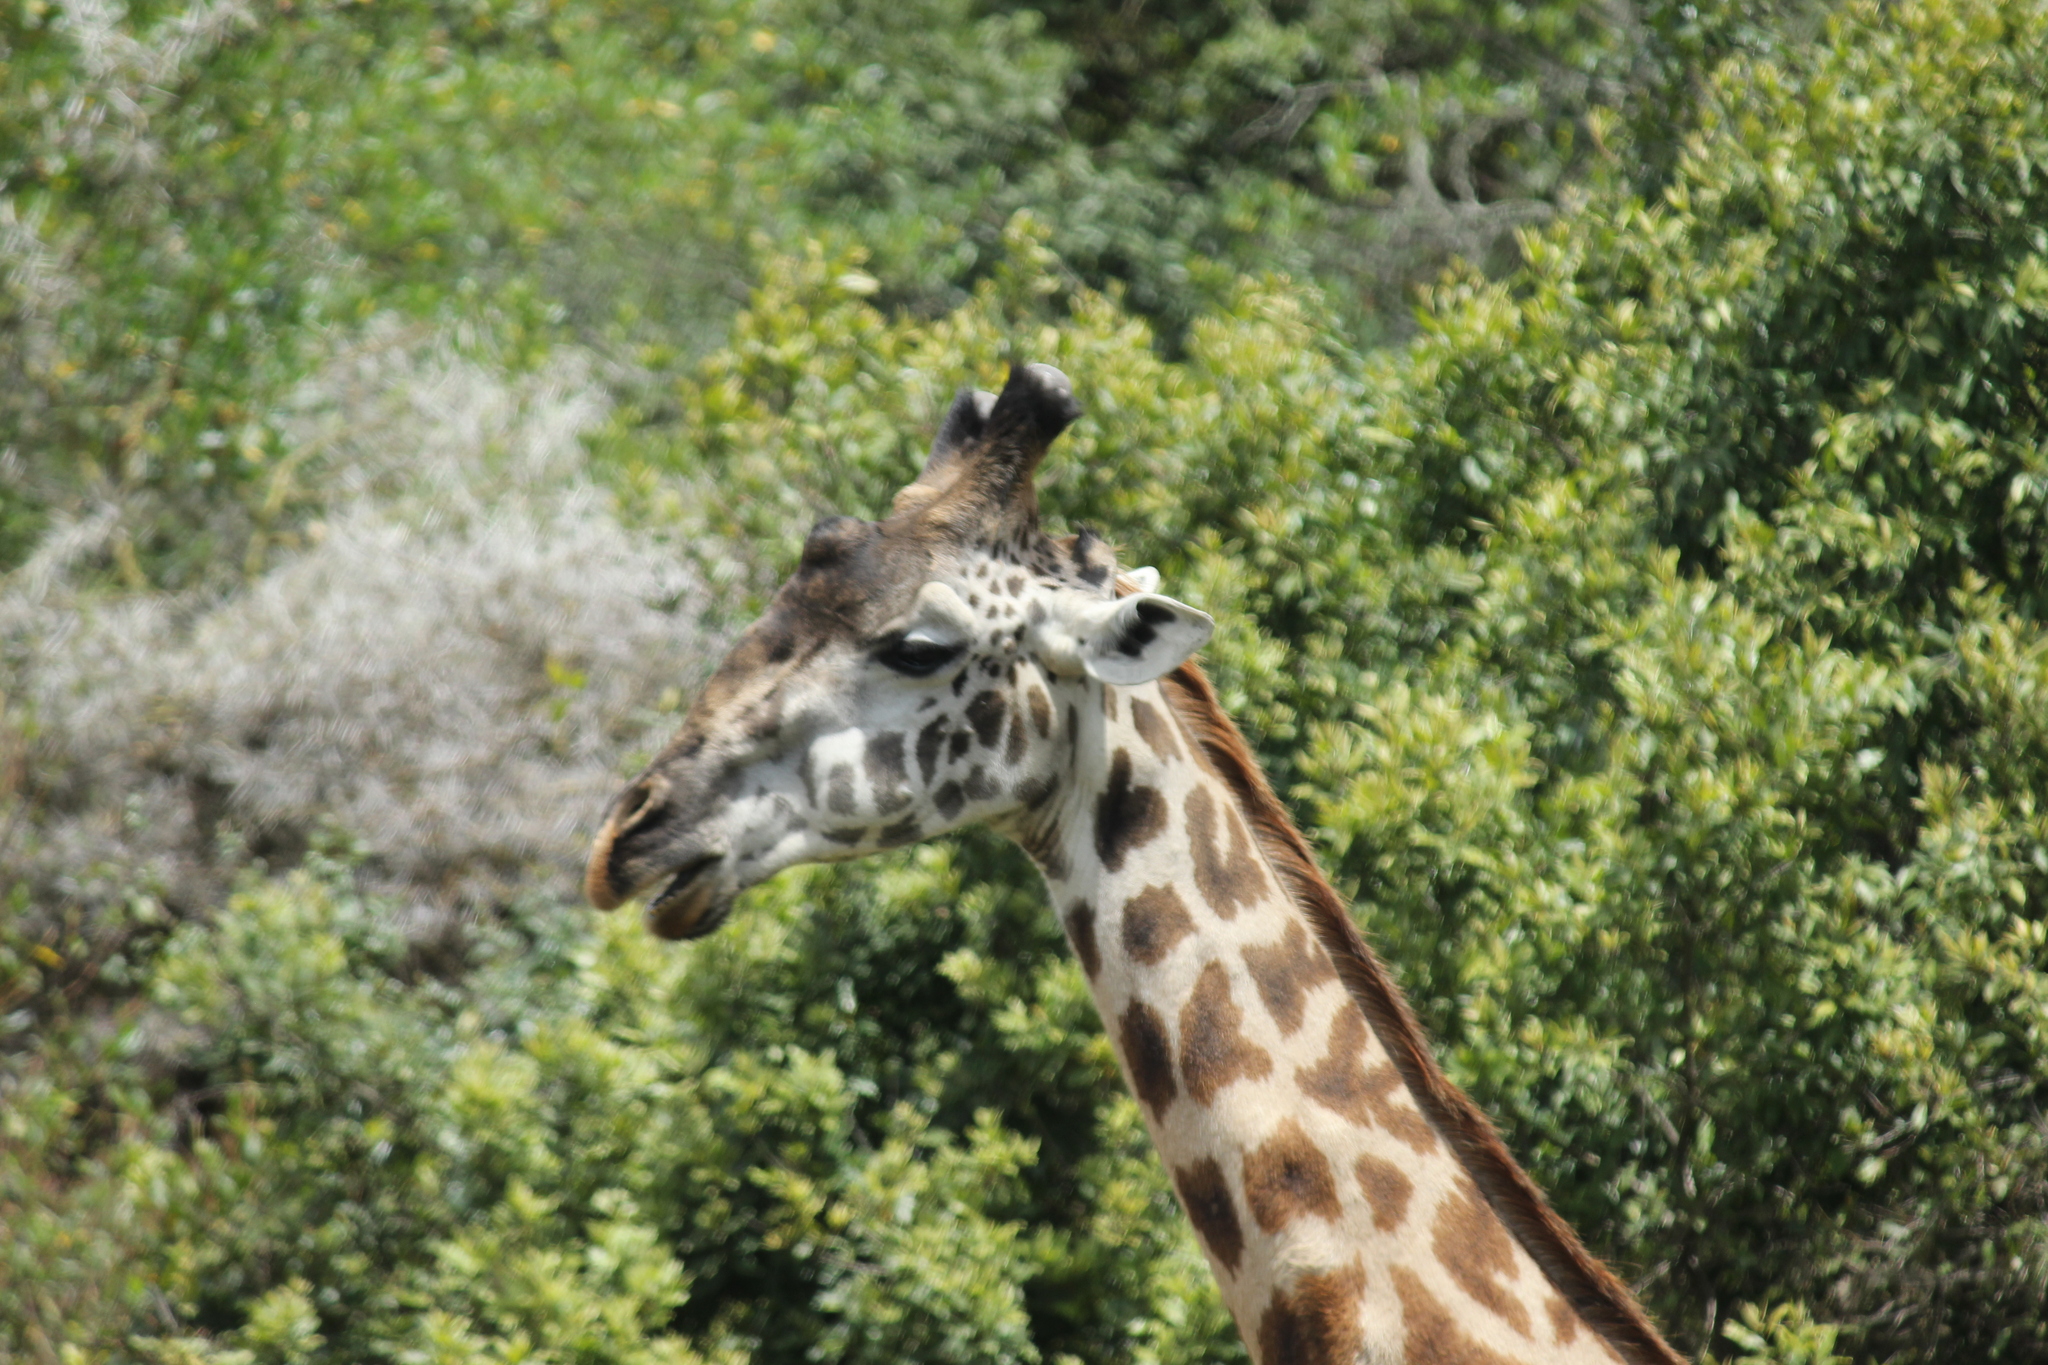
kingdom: Animalia
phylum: Chordata
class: Mammalia
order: Artiodactyla
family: Giraffidae
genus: Giraffa
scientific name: Giraffa tippelskirchi
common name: Masai giraffe
